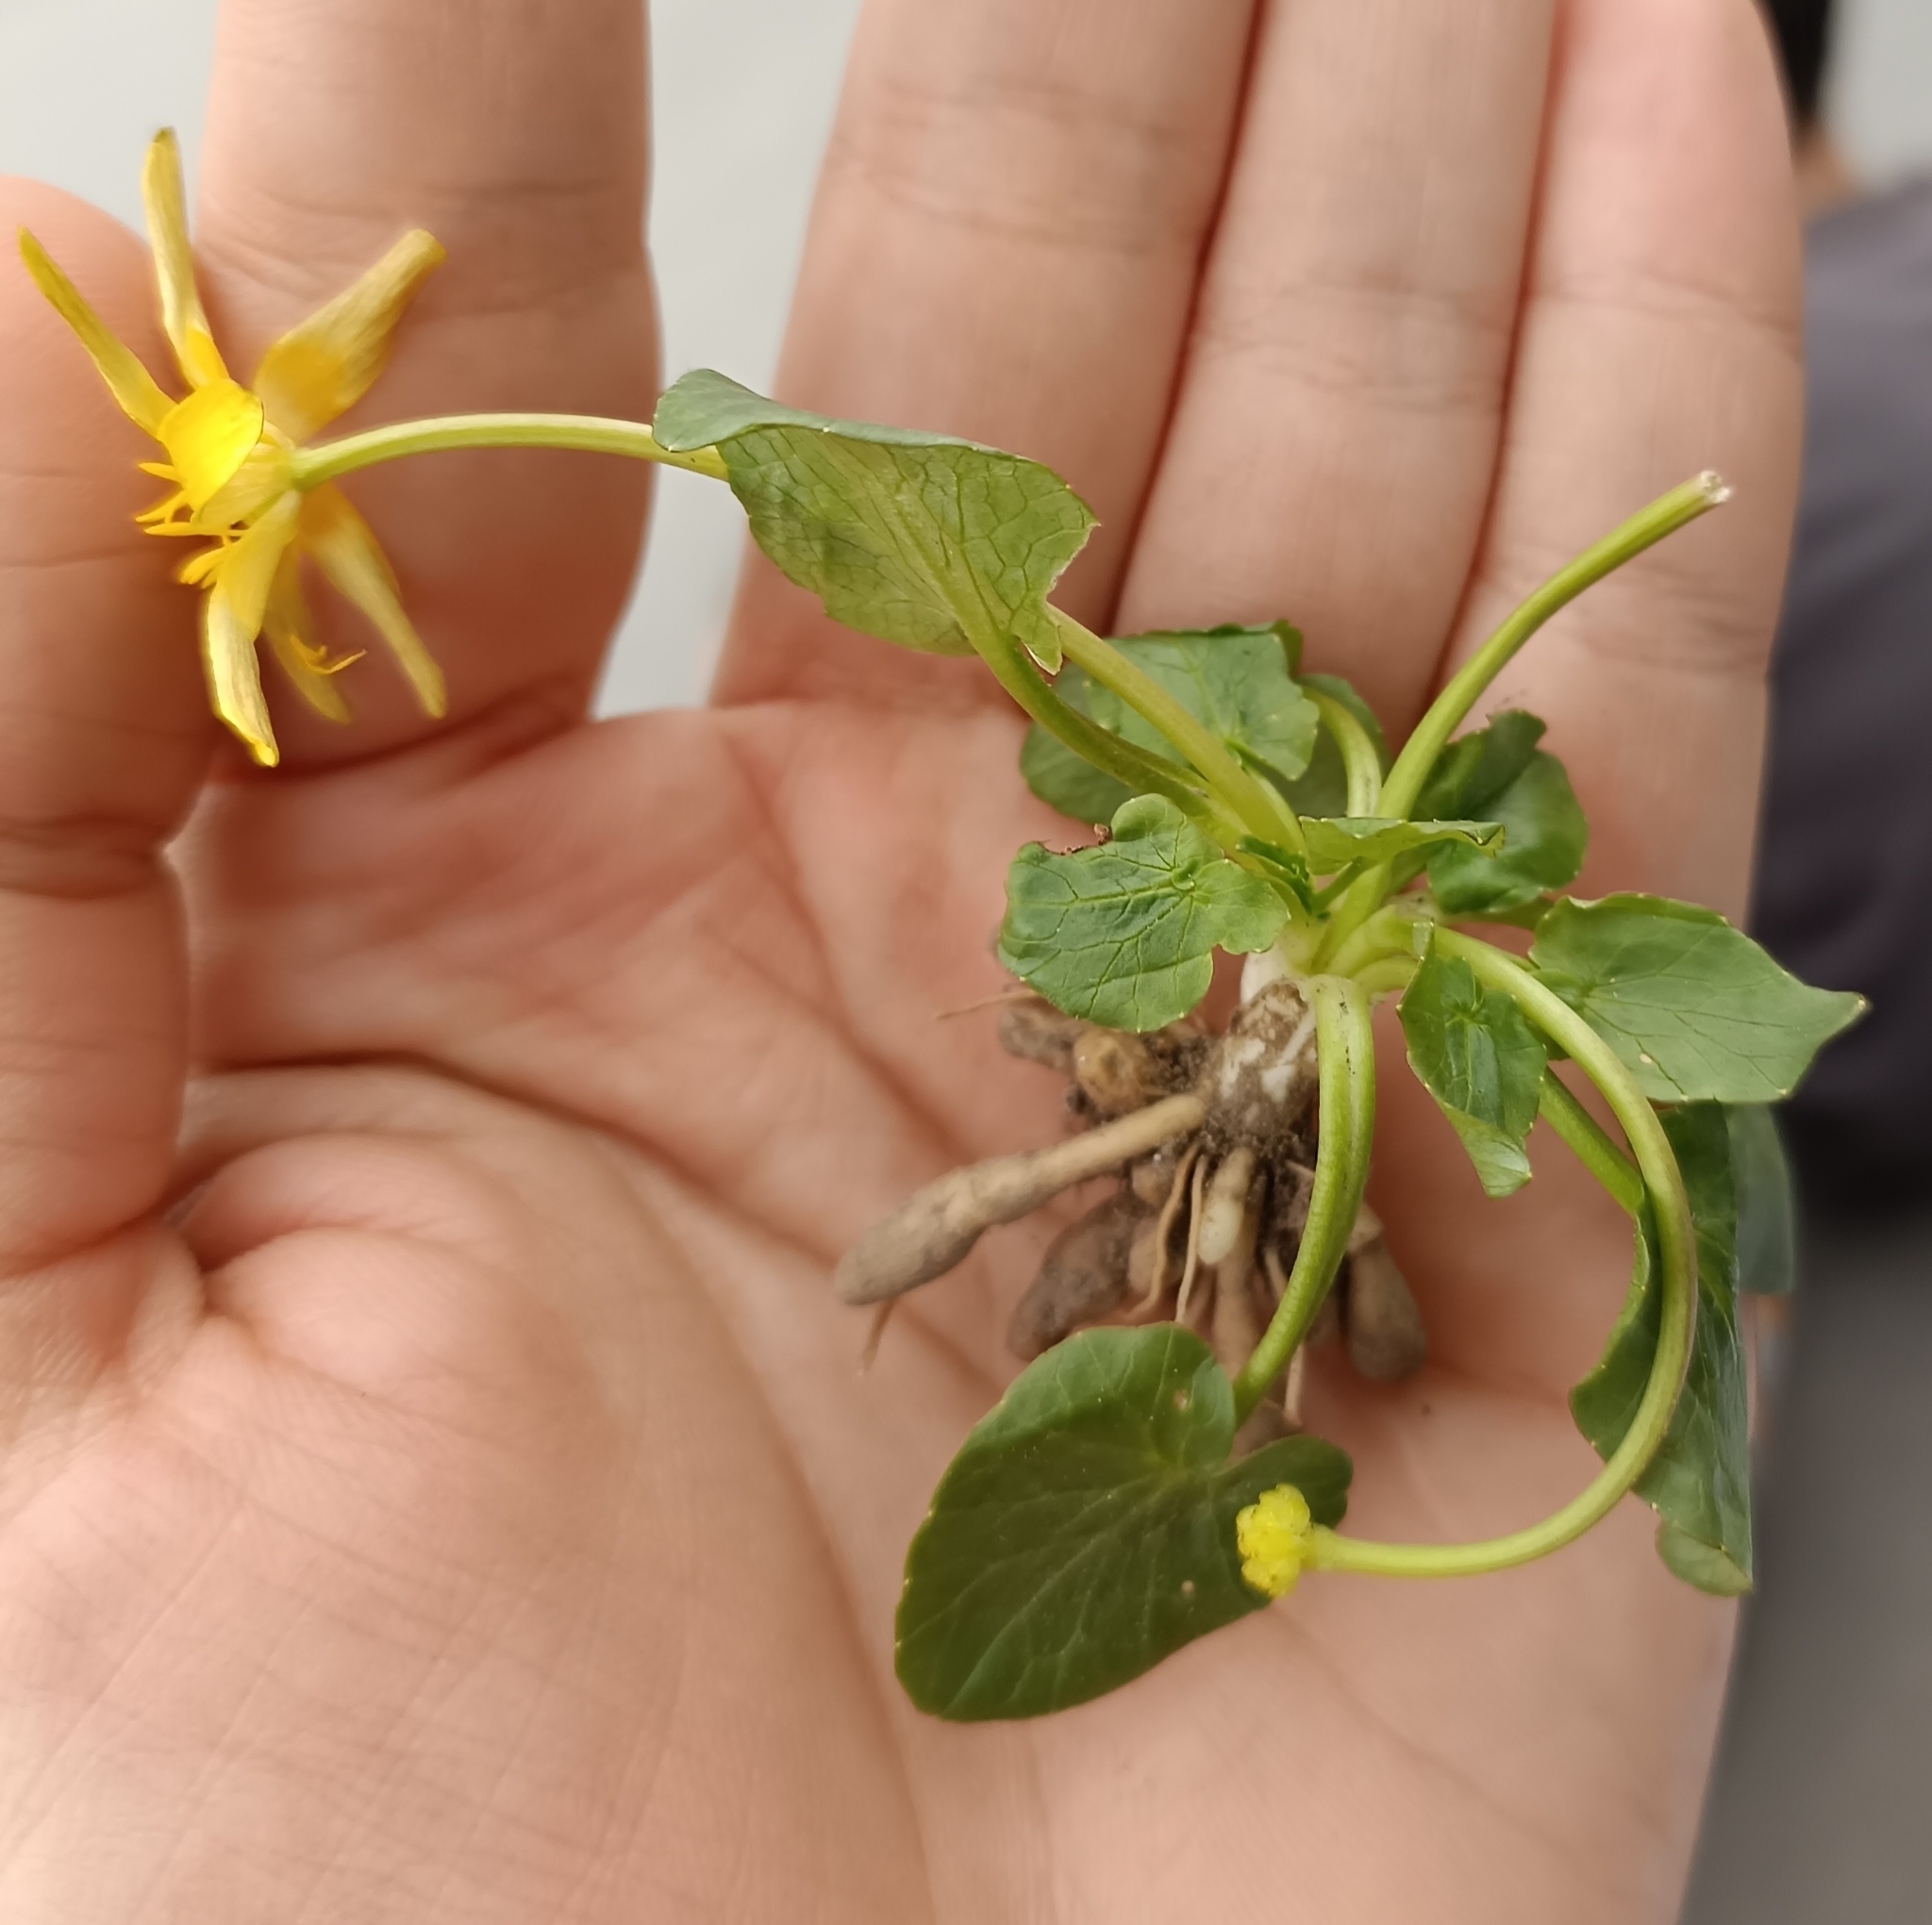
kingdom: Plantae
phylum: Tracheophyta
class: Magnoliopsida
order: Ranunculales
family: Ranunculaceae
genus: Ficaria
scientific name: Ficaria
